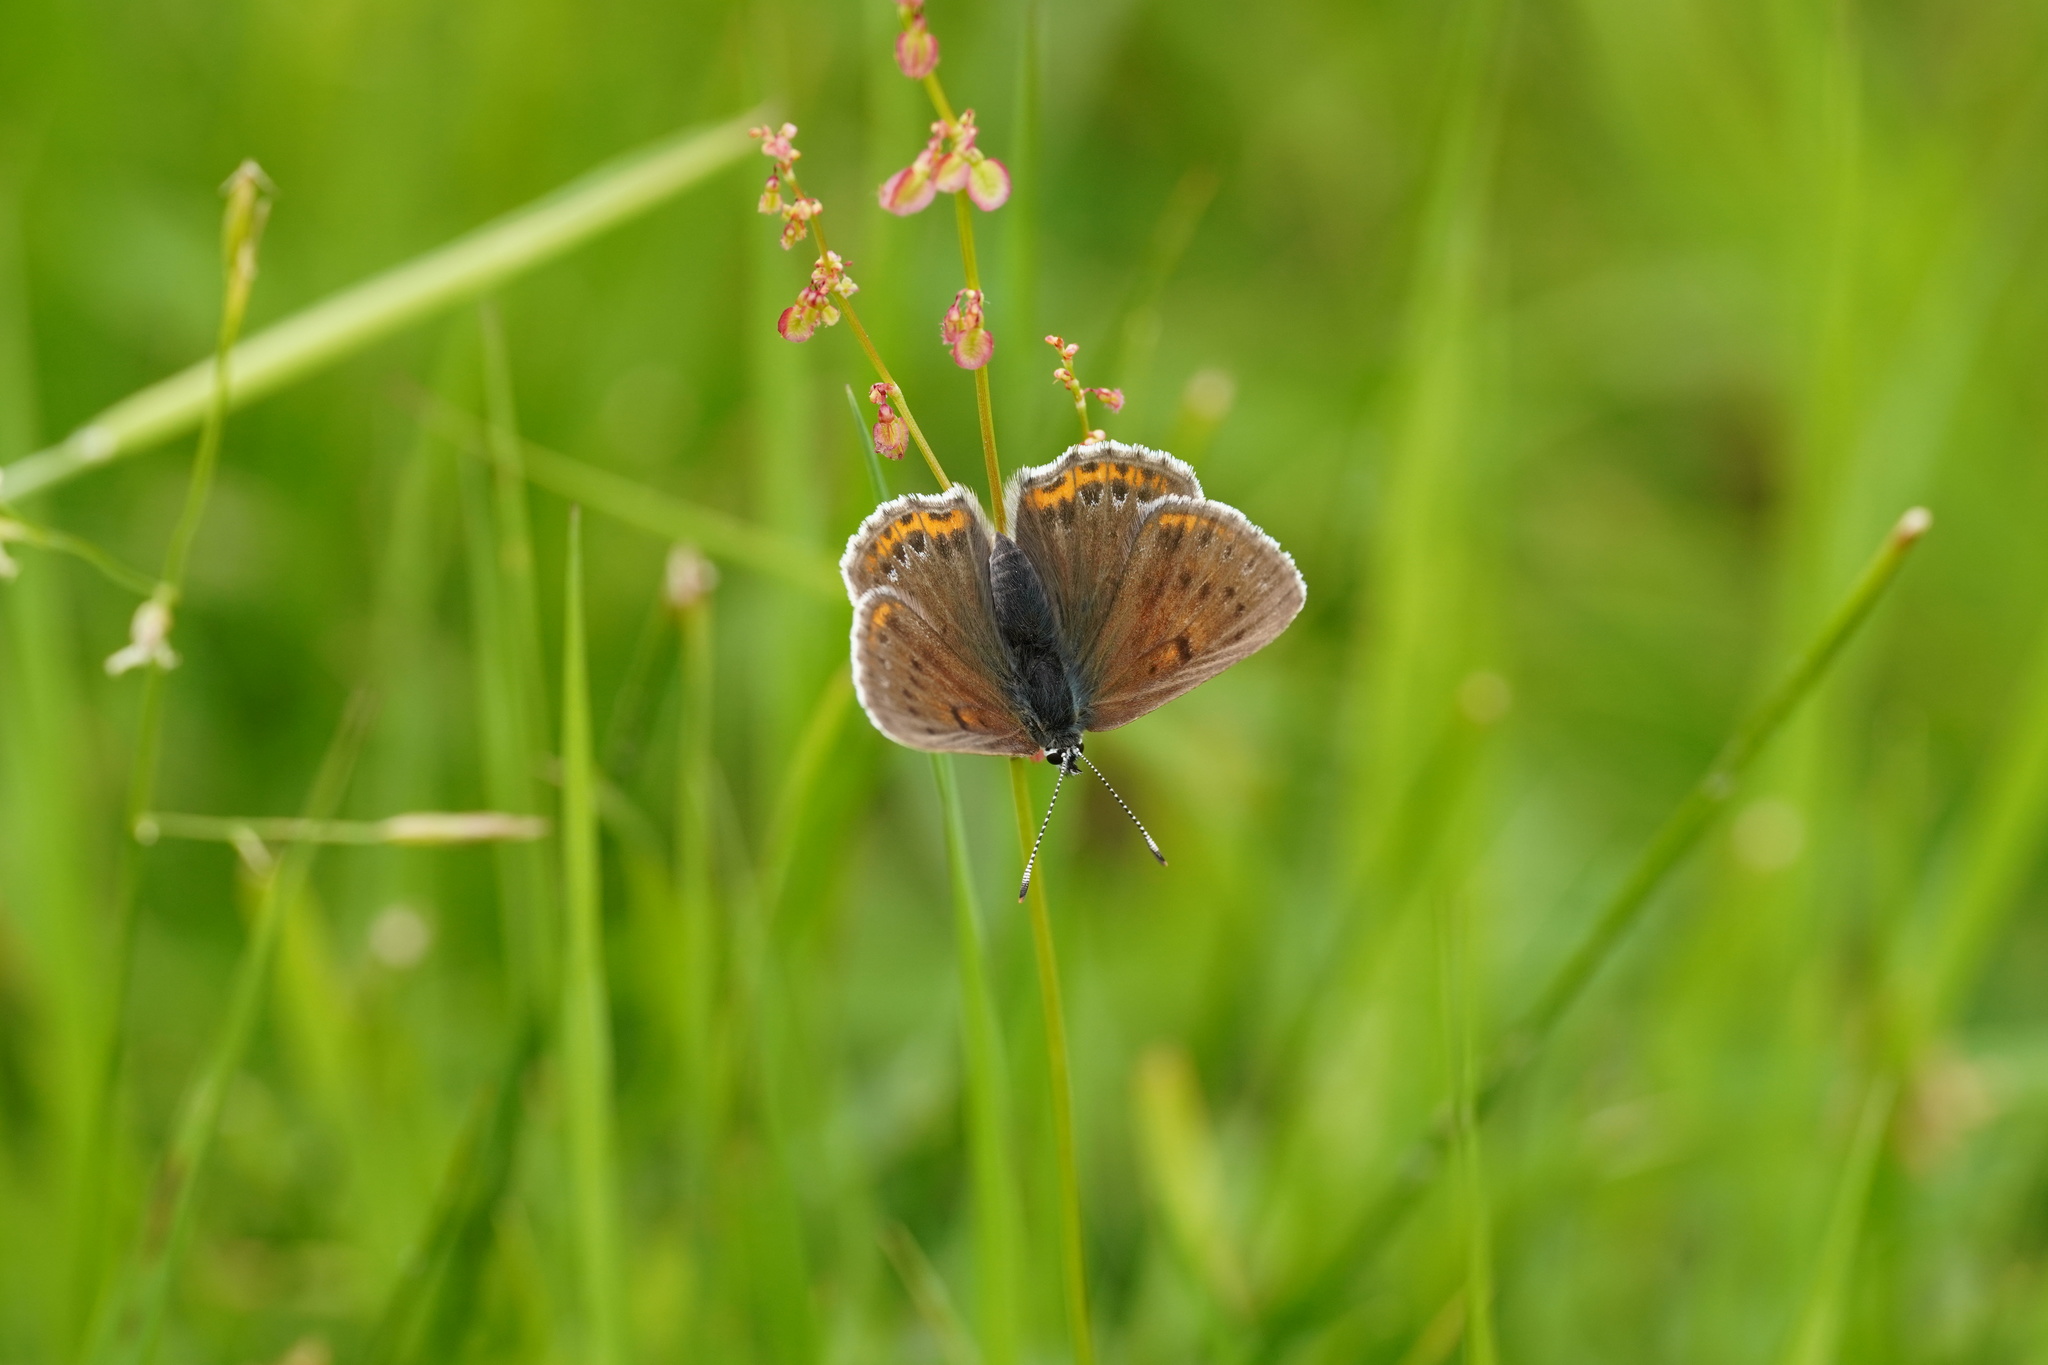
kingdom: Animalia
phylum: Arthropoda
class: Insecta
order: Lepidoptera
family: Lycaenidae
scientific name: Lycaenidae
